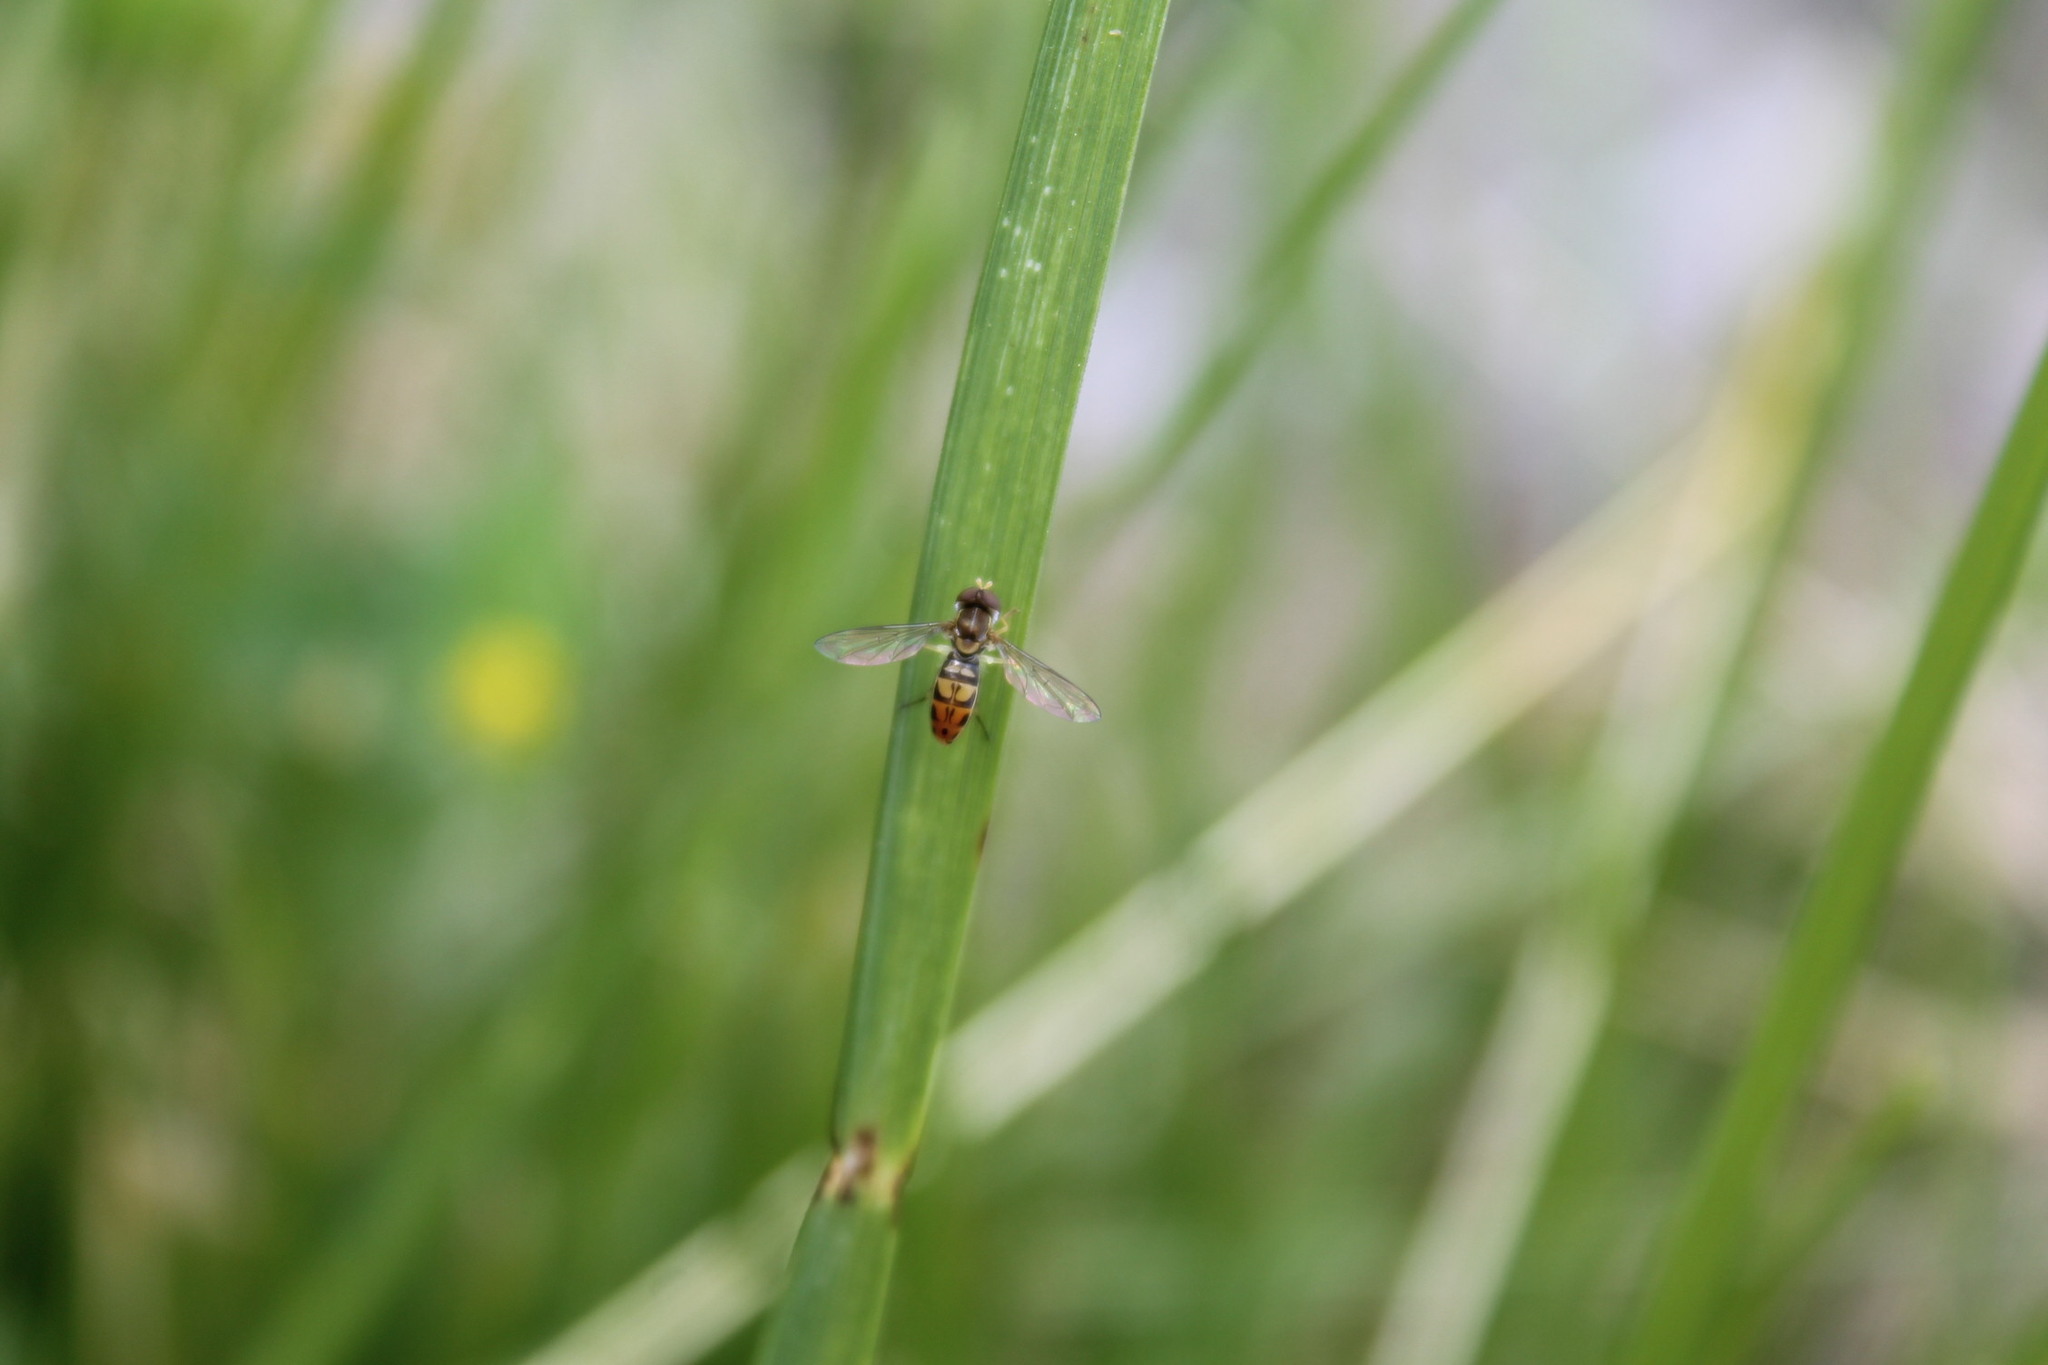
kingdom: Animalia
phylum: Arthropoda
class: Insecta
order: Diptera
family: Syrphidae
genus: Toxomerus
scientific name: Toxomerus marginatus
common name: Syrphid fly
